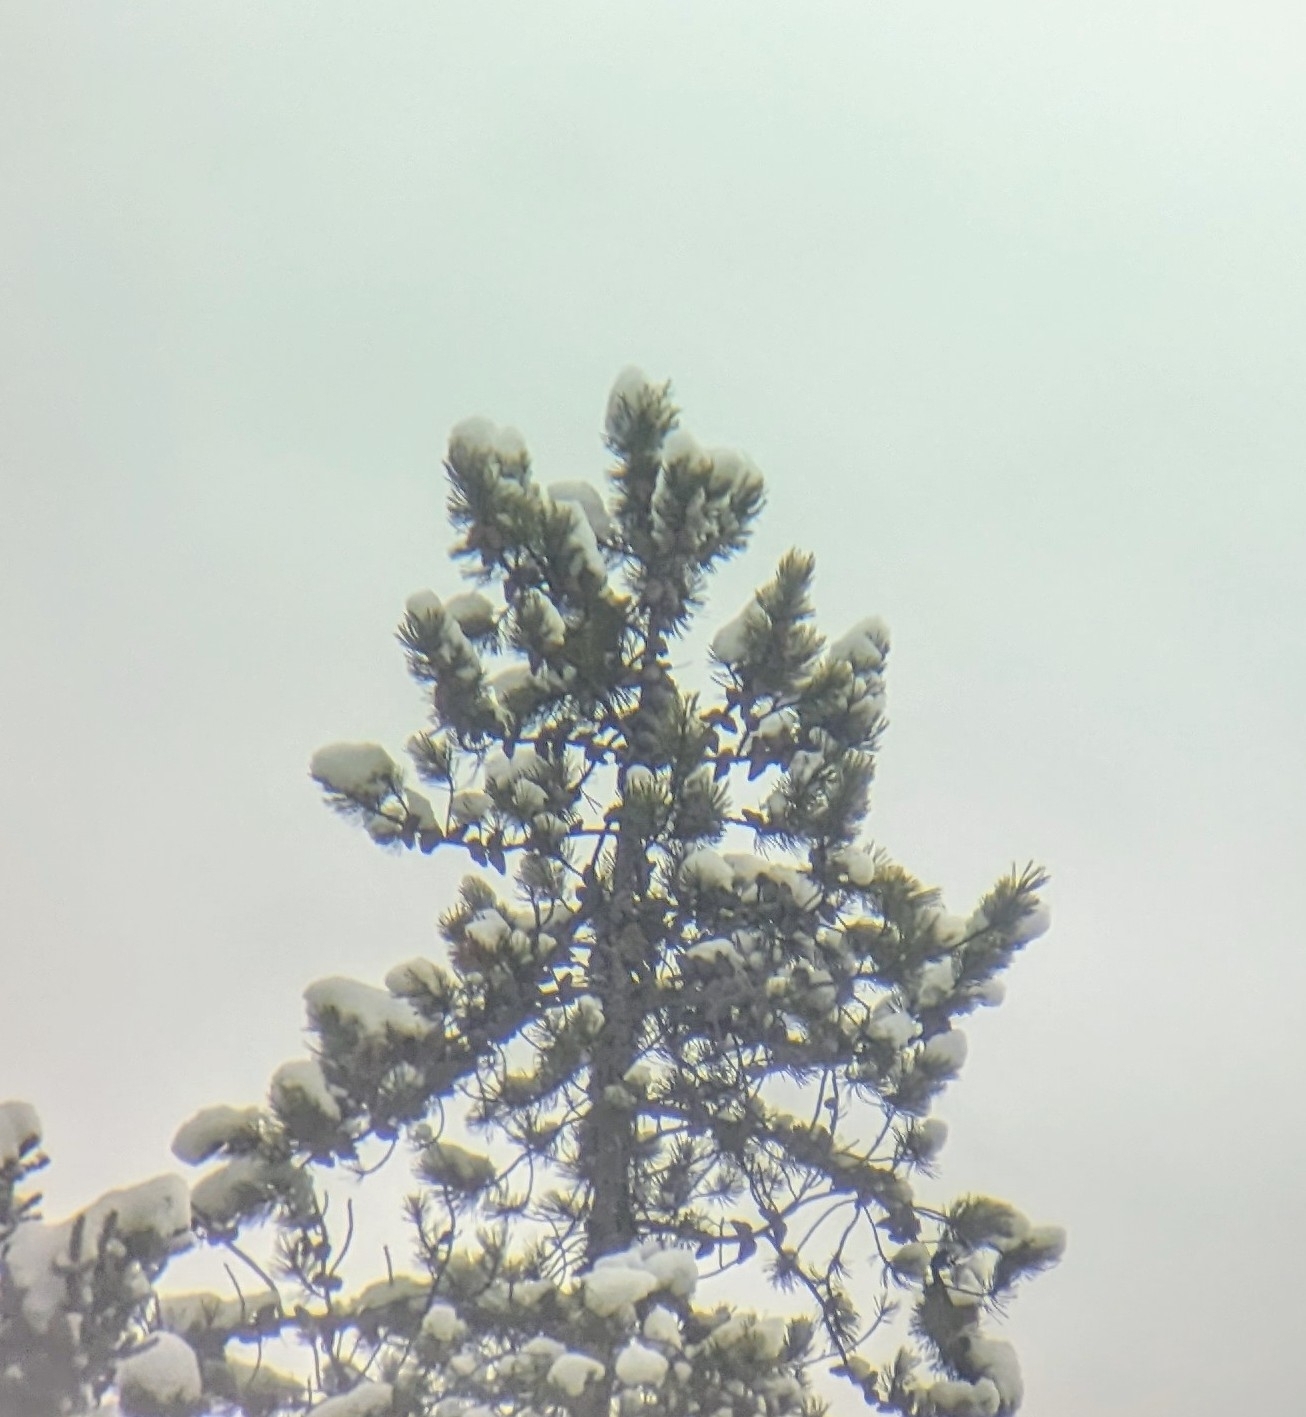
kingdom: Plantae
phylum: Tracheophyta
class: Pinopsida
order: Pinales
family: Pinaceae
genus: Pinus
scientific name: Pinus contorta
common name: Lodgepole pine
